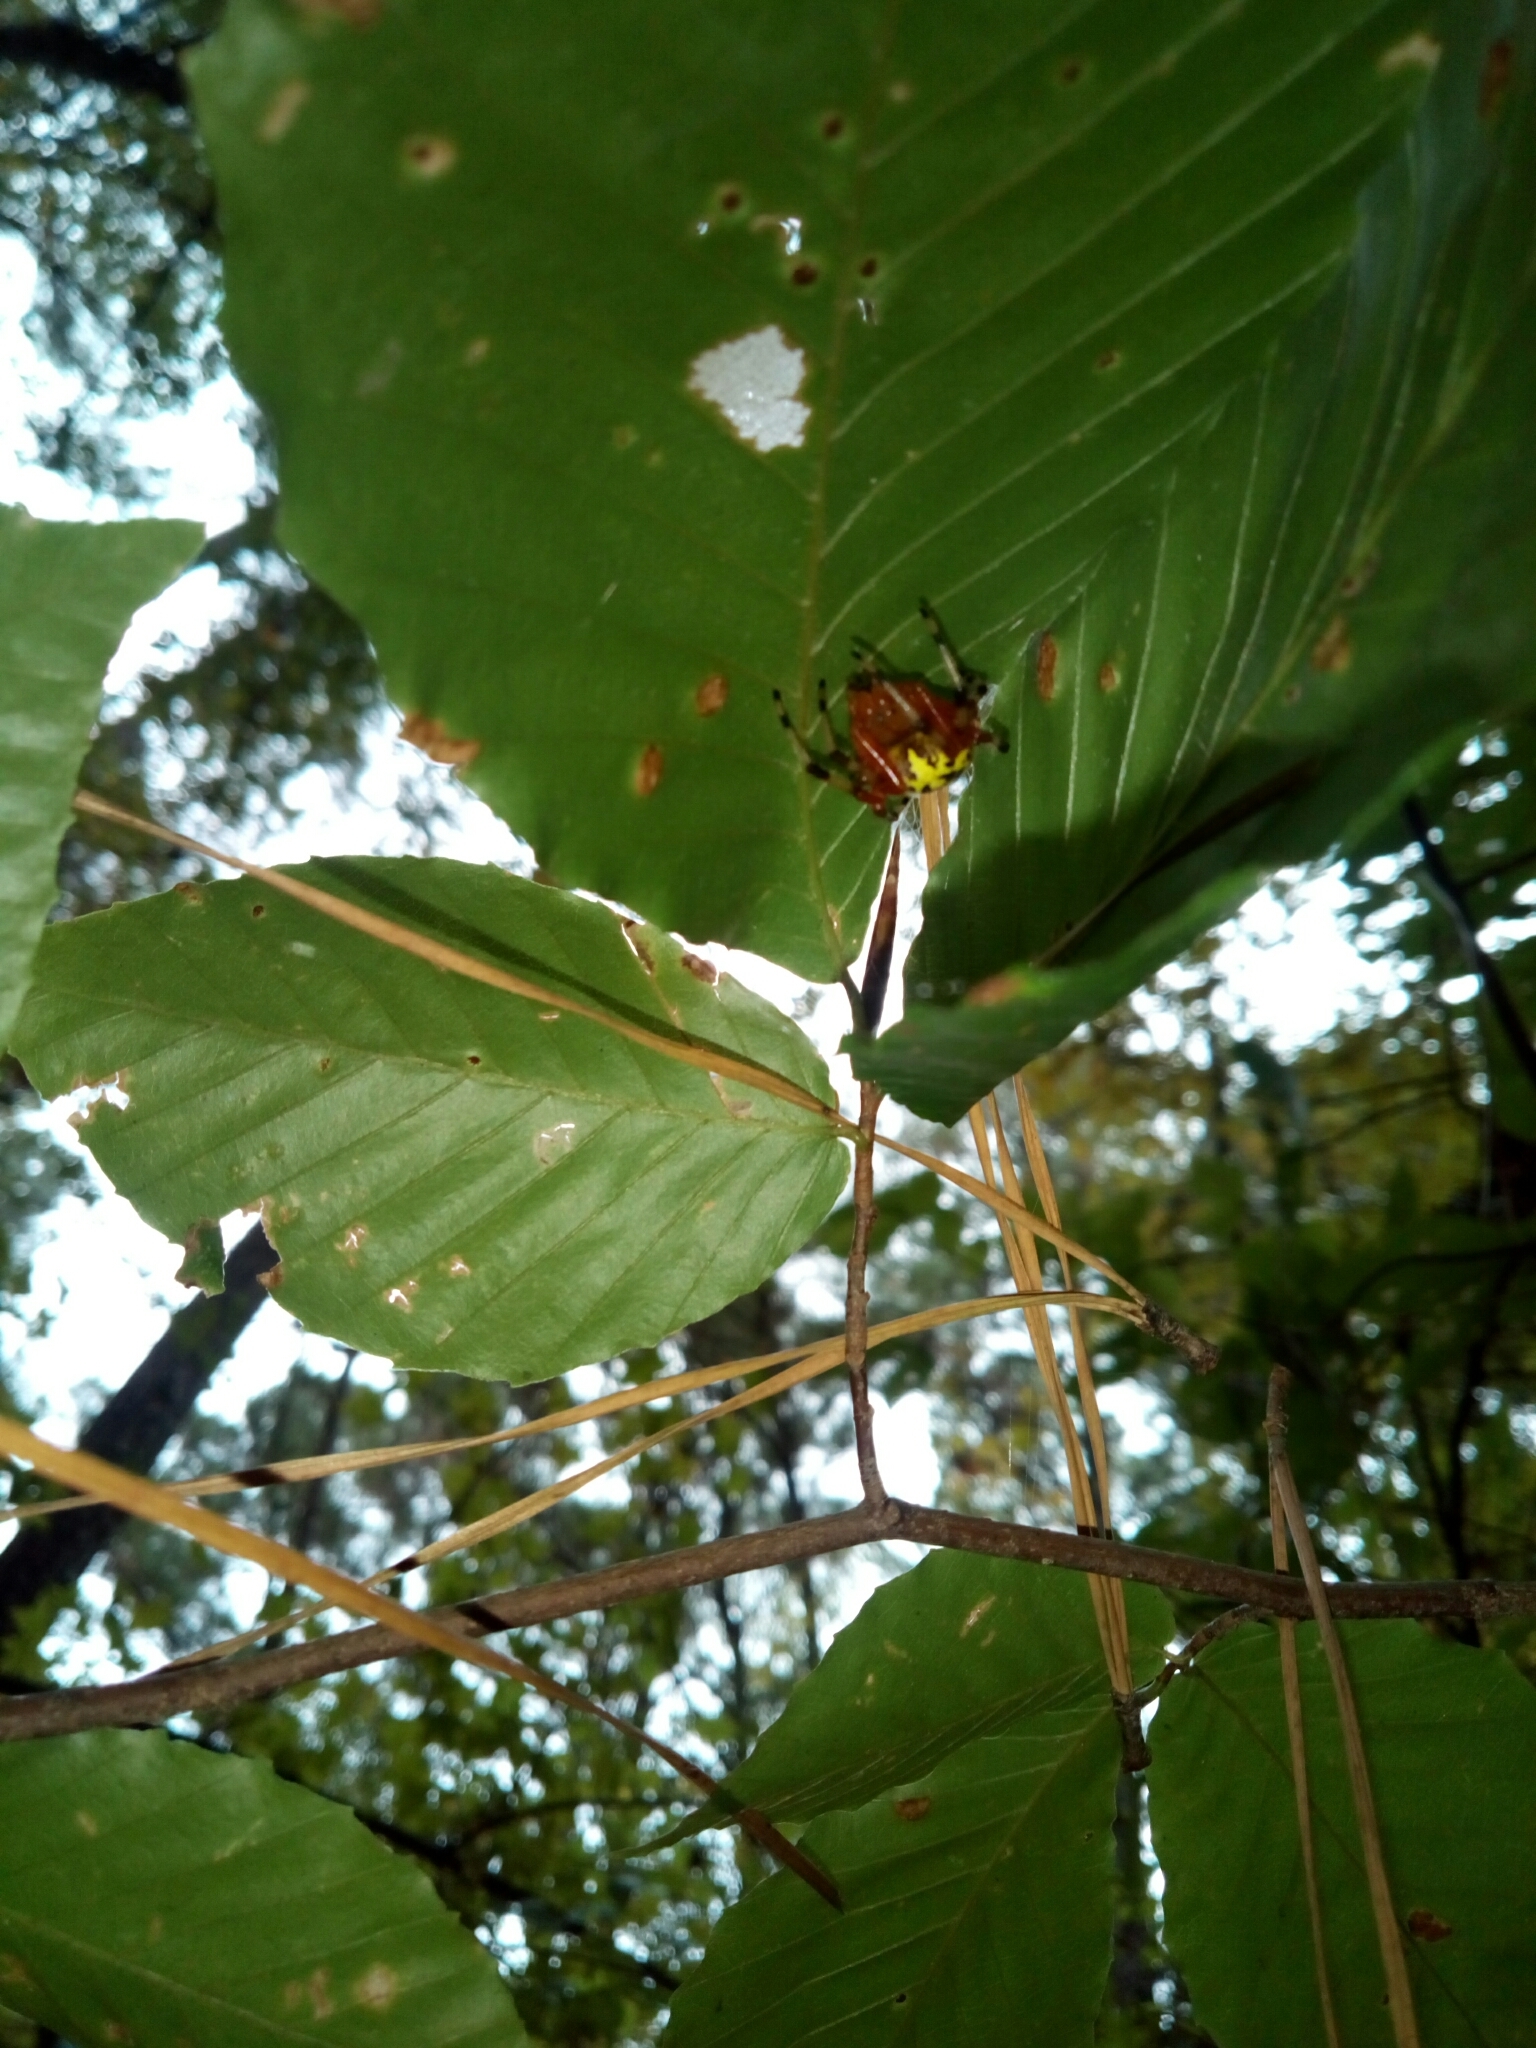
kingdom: Animalia
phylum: Arthropoda
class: Arachnida
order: Araneae
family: Araneidae
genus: Araneus
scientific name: Araneus marmoreus
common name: Marbled orbweaver
